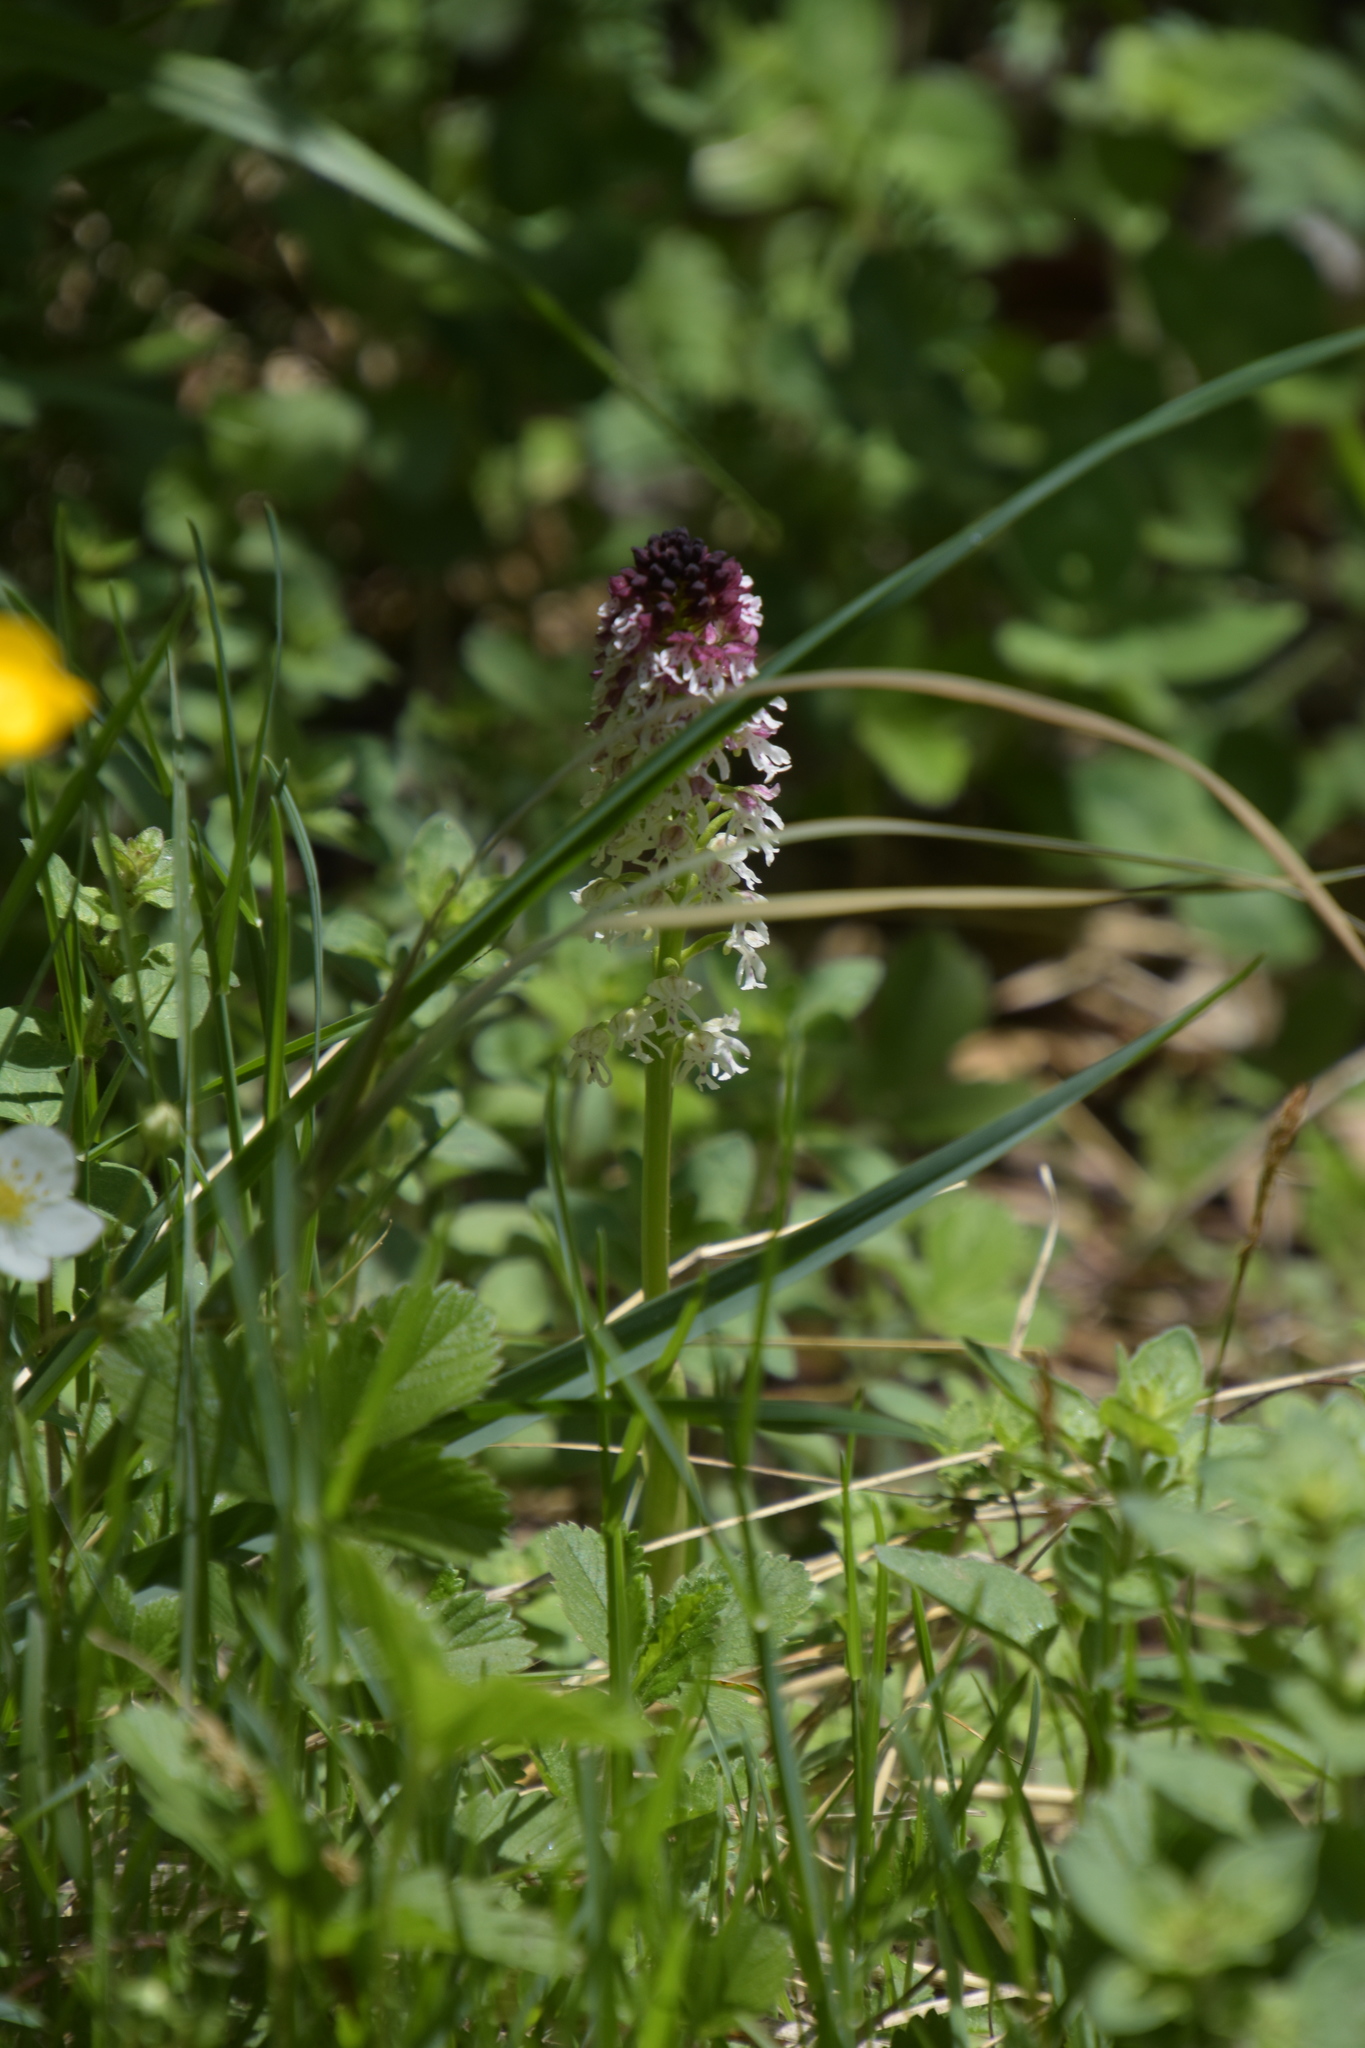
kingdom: Plantae
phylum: Tracheophyta
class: Liliopsida
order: Asparagales
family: Orchidaceae
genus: Neotinea
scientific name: Neotinea ustulata
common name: Burnt orchid
